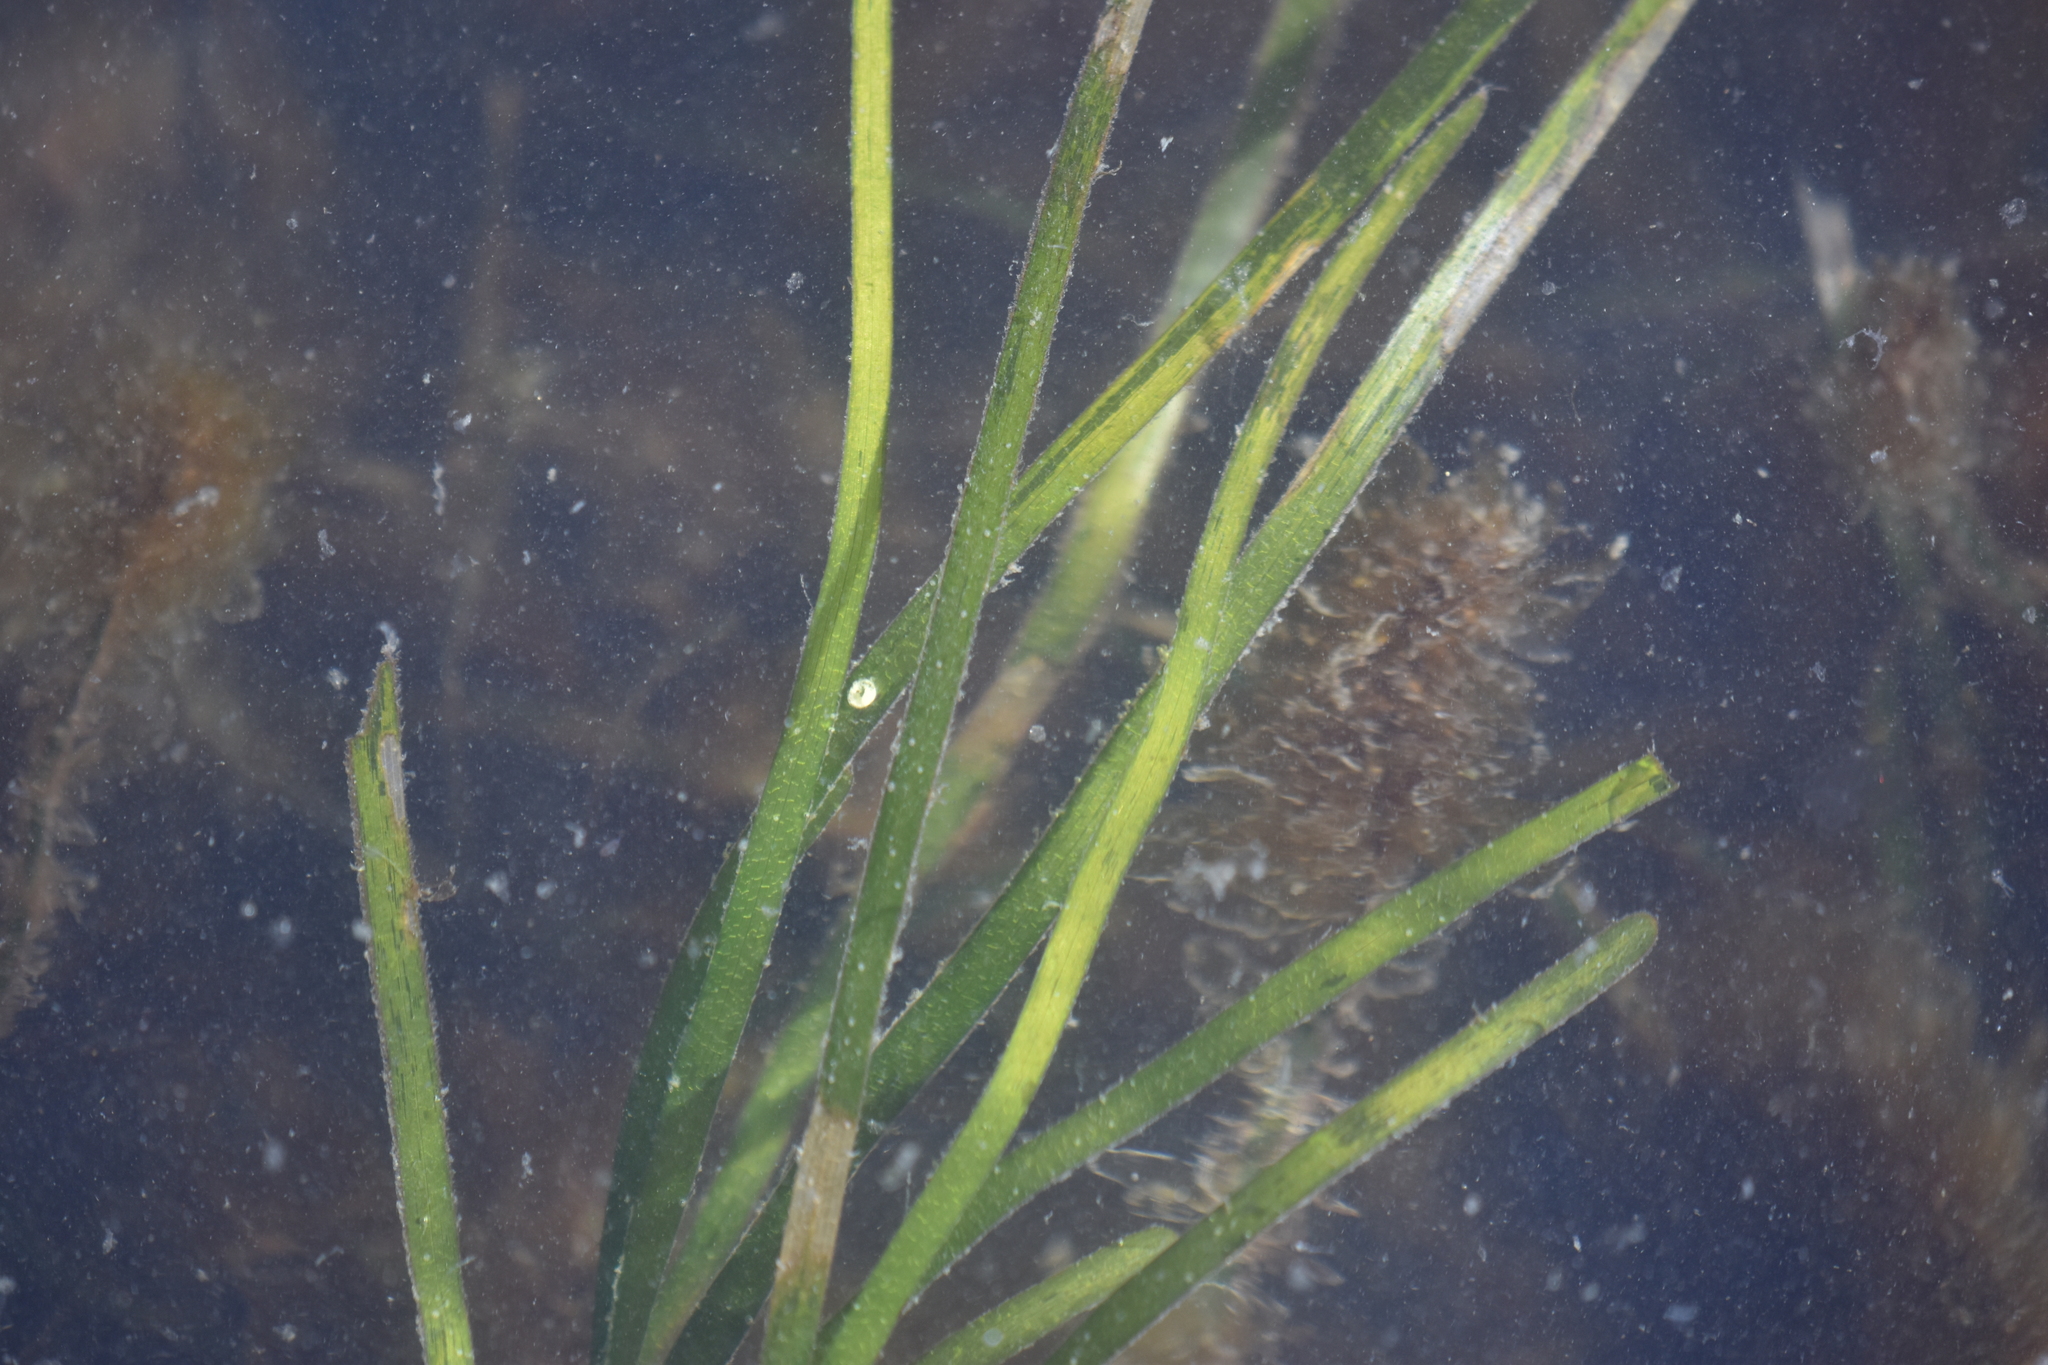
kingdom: Plantae
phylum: Tracheophyta
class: Liliopsida
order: Alismatales
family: Zosteraceae
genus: Zostera
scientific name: Zostera marina
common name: Eelgrass
